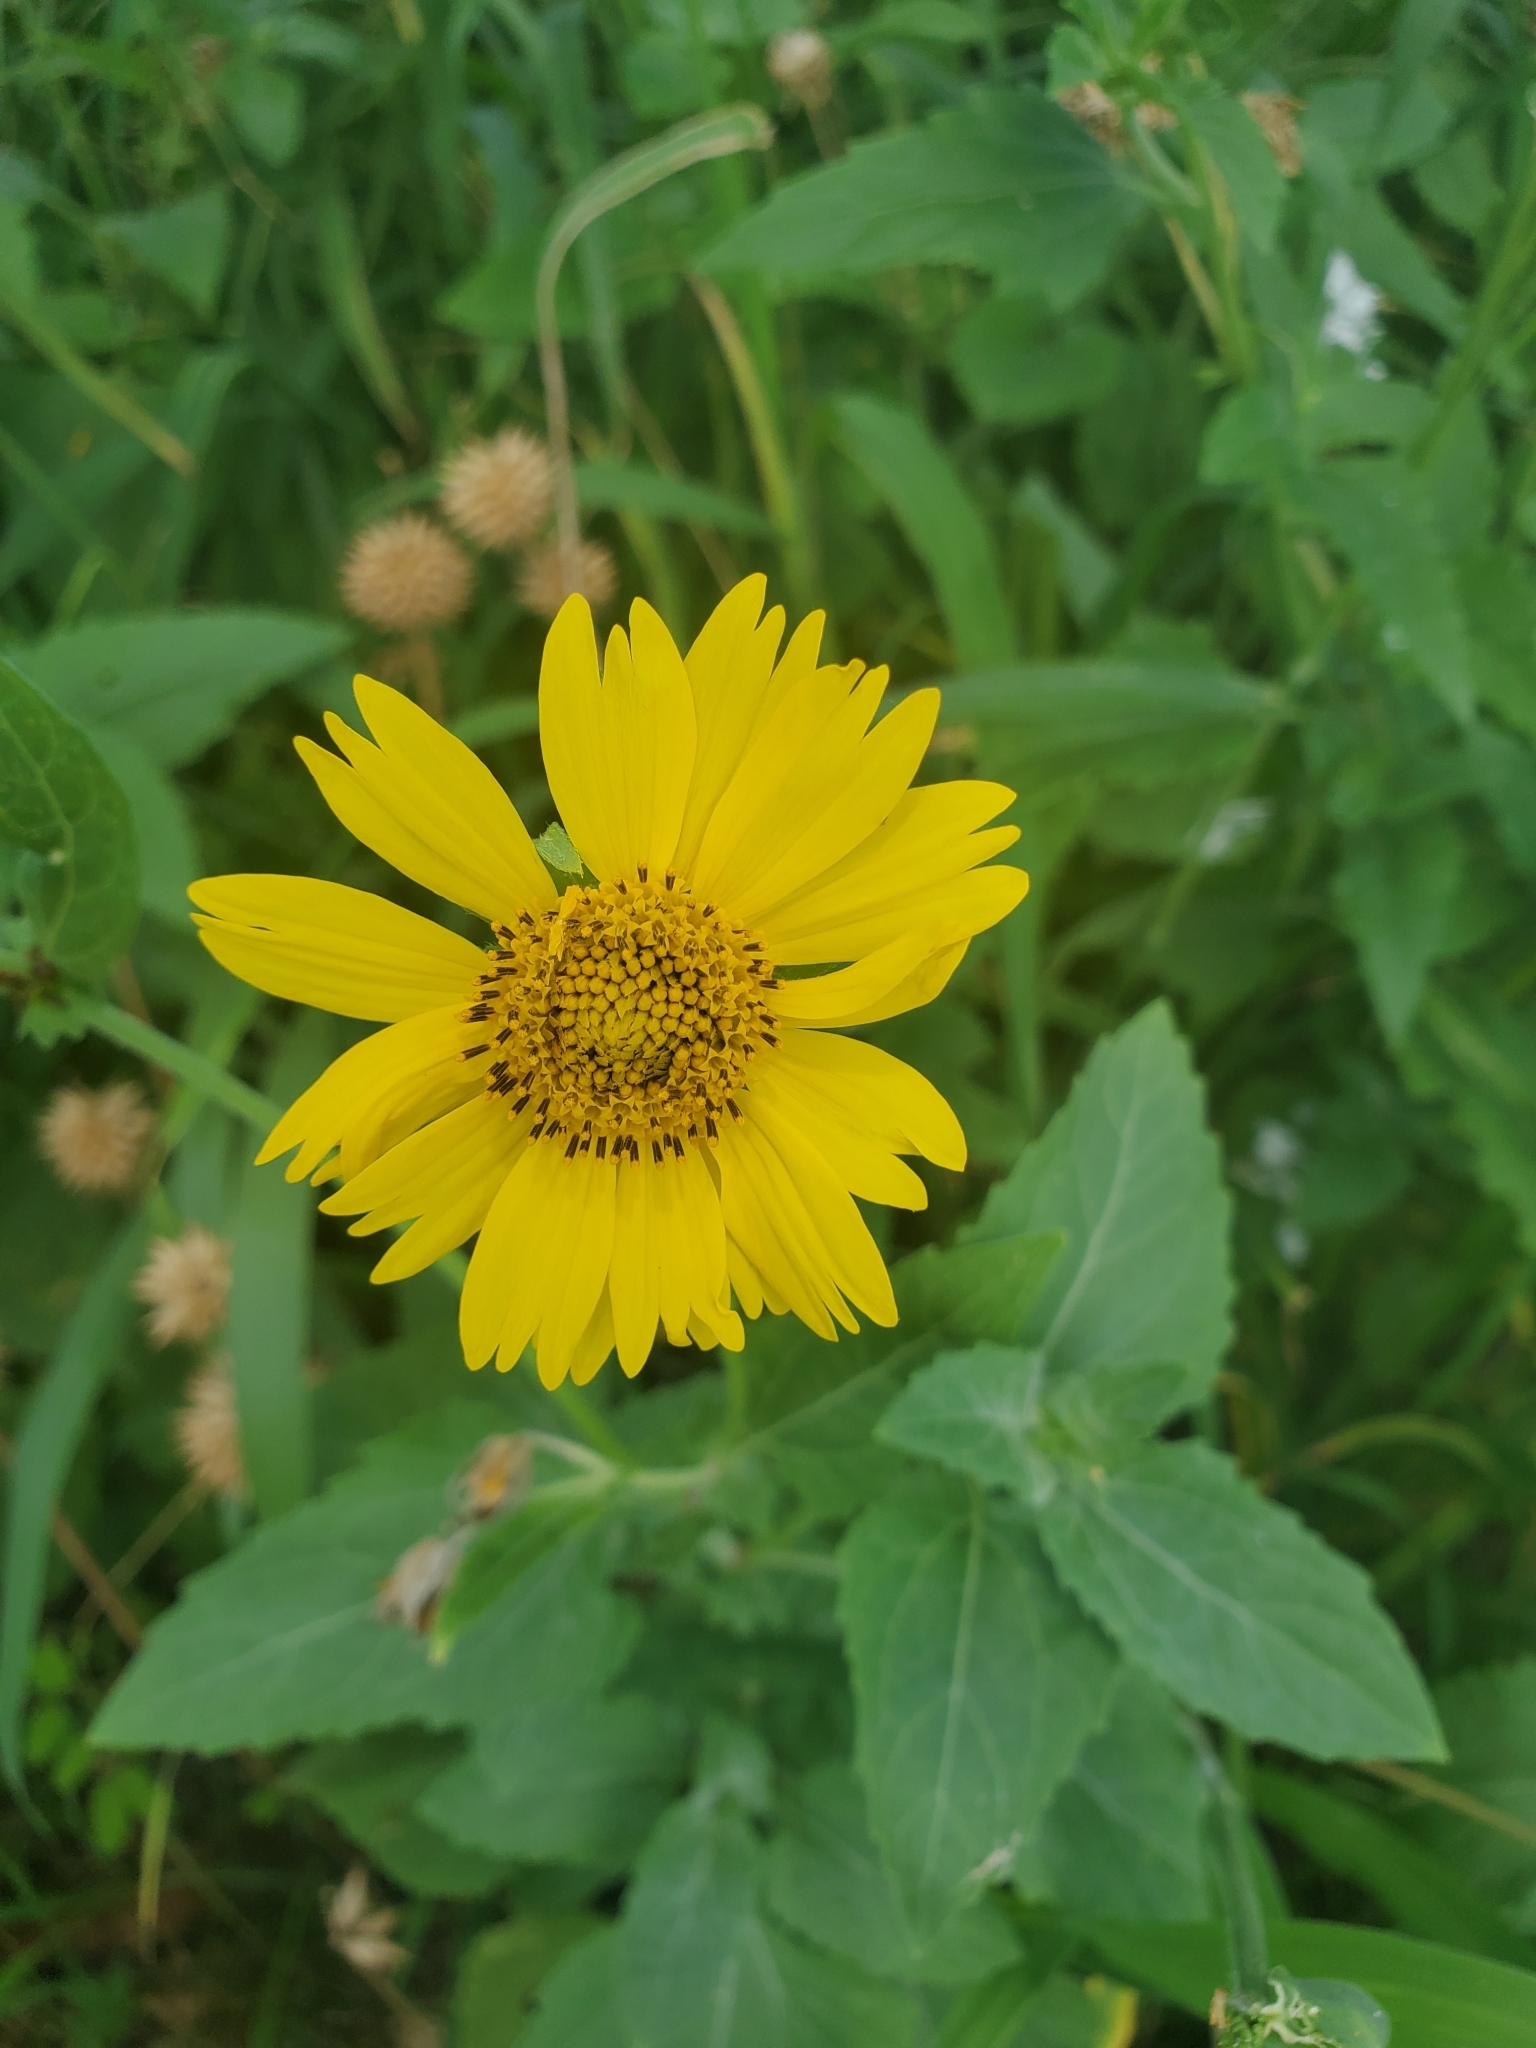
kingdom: Plantae
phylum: Tracheophyta
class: Magnoliopsida
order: Asterales
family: Asteraceae
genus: Verbesina
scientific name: Verbesina encelioides
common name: Golden crownbeard
